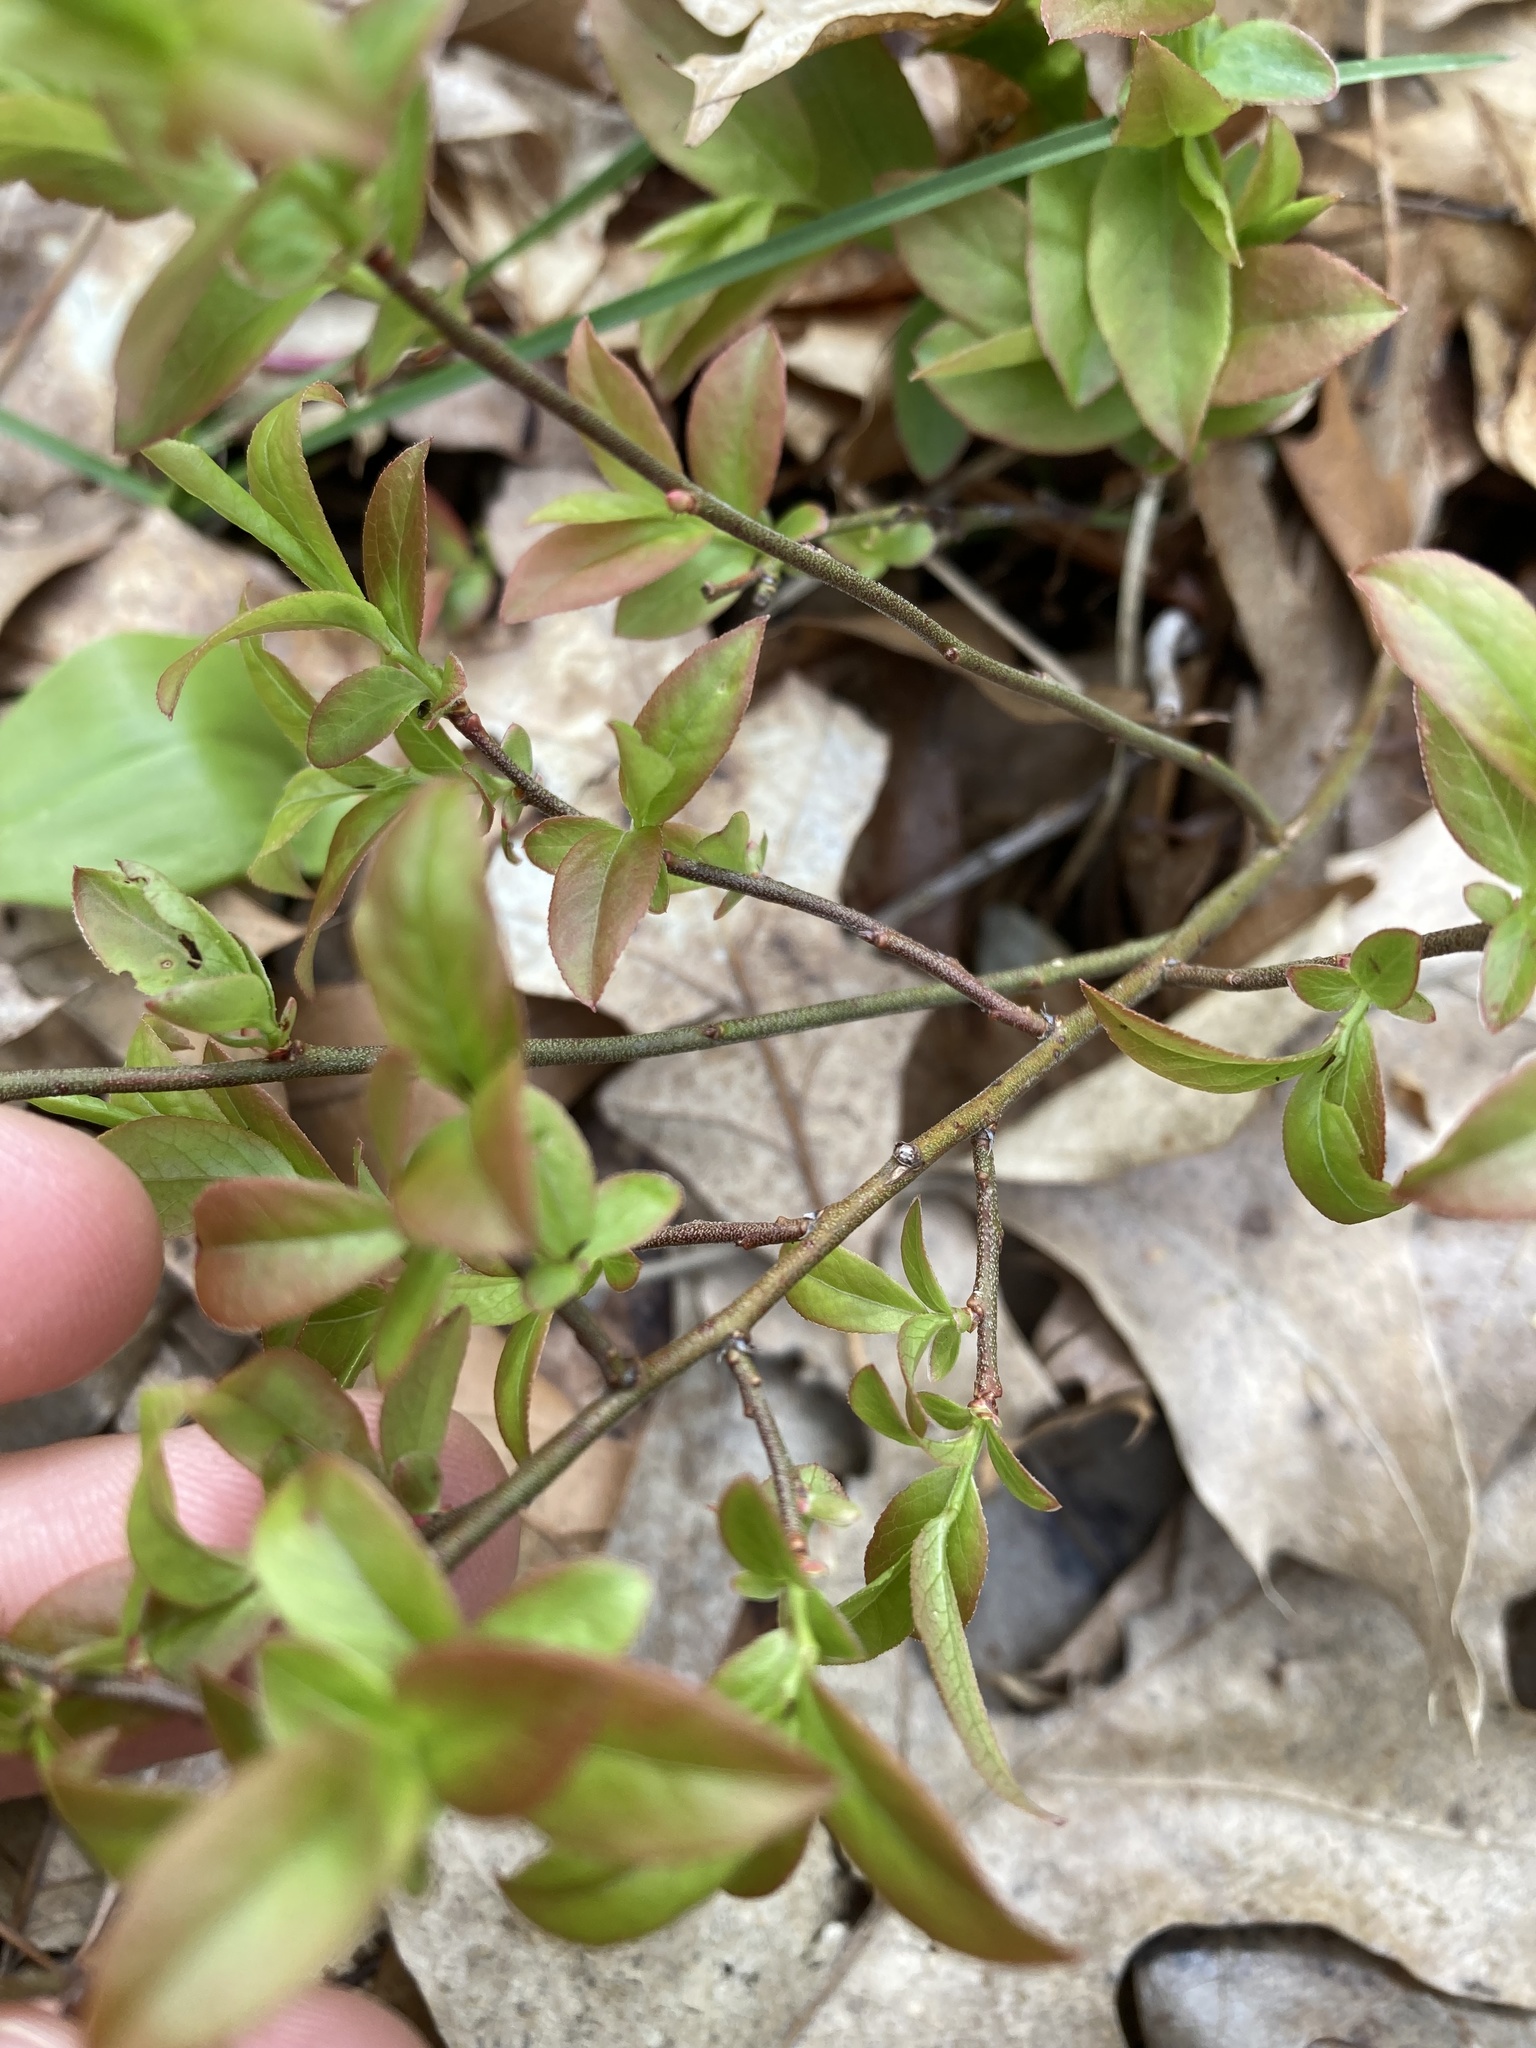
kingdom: Plantae
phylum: Tracheophyta
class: Magnoliopsida
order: Ericales
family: Ericaceae
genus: Vaccinium
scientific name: Vaccinium angustifolium
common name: Early lowbush blueberry
